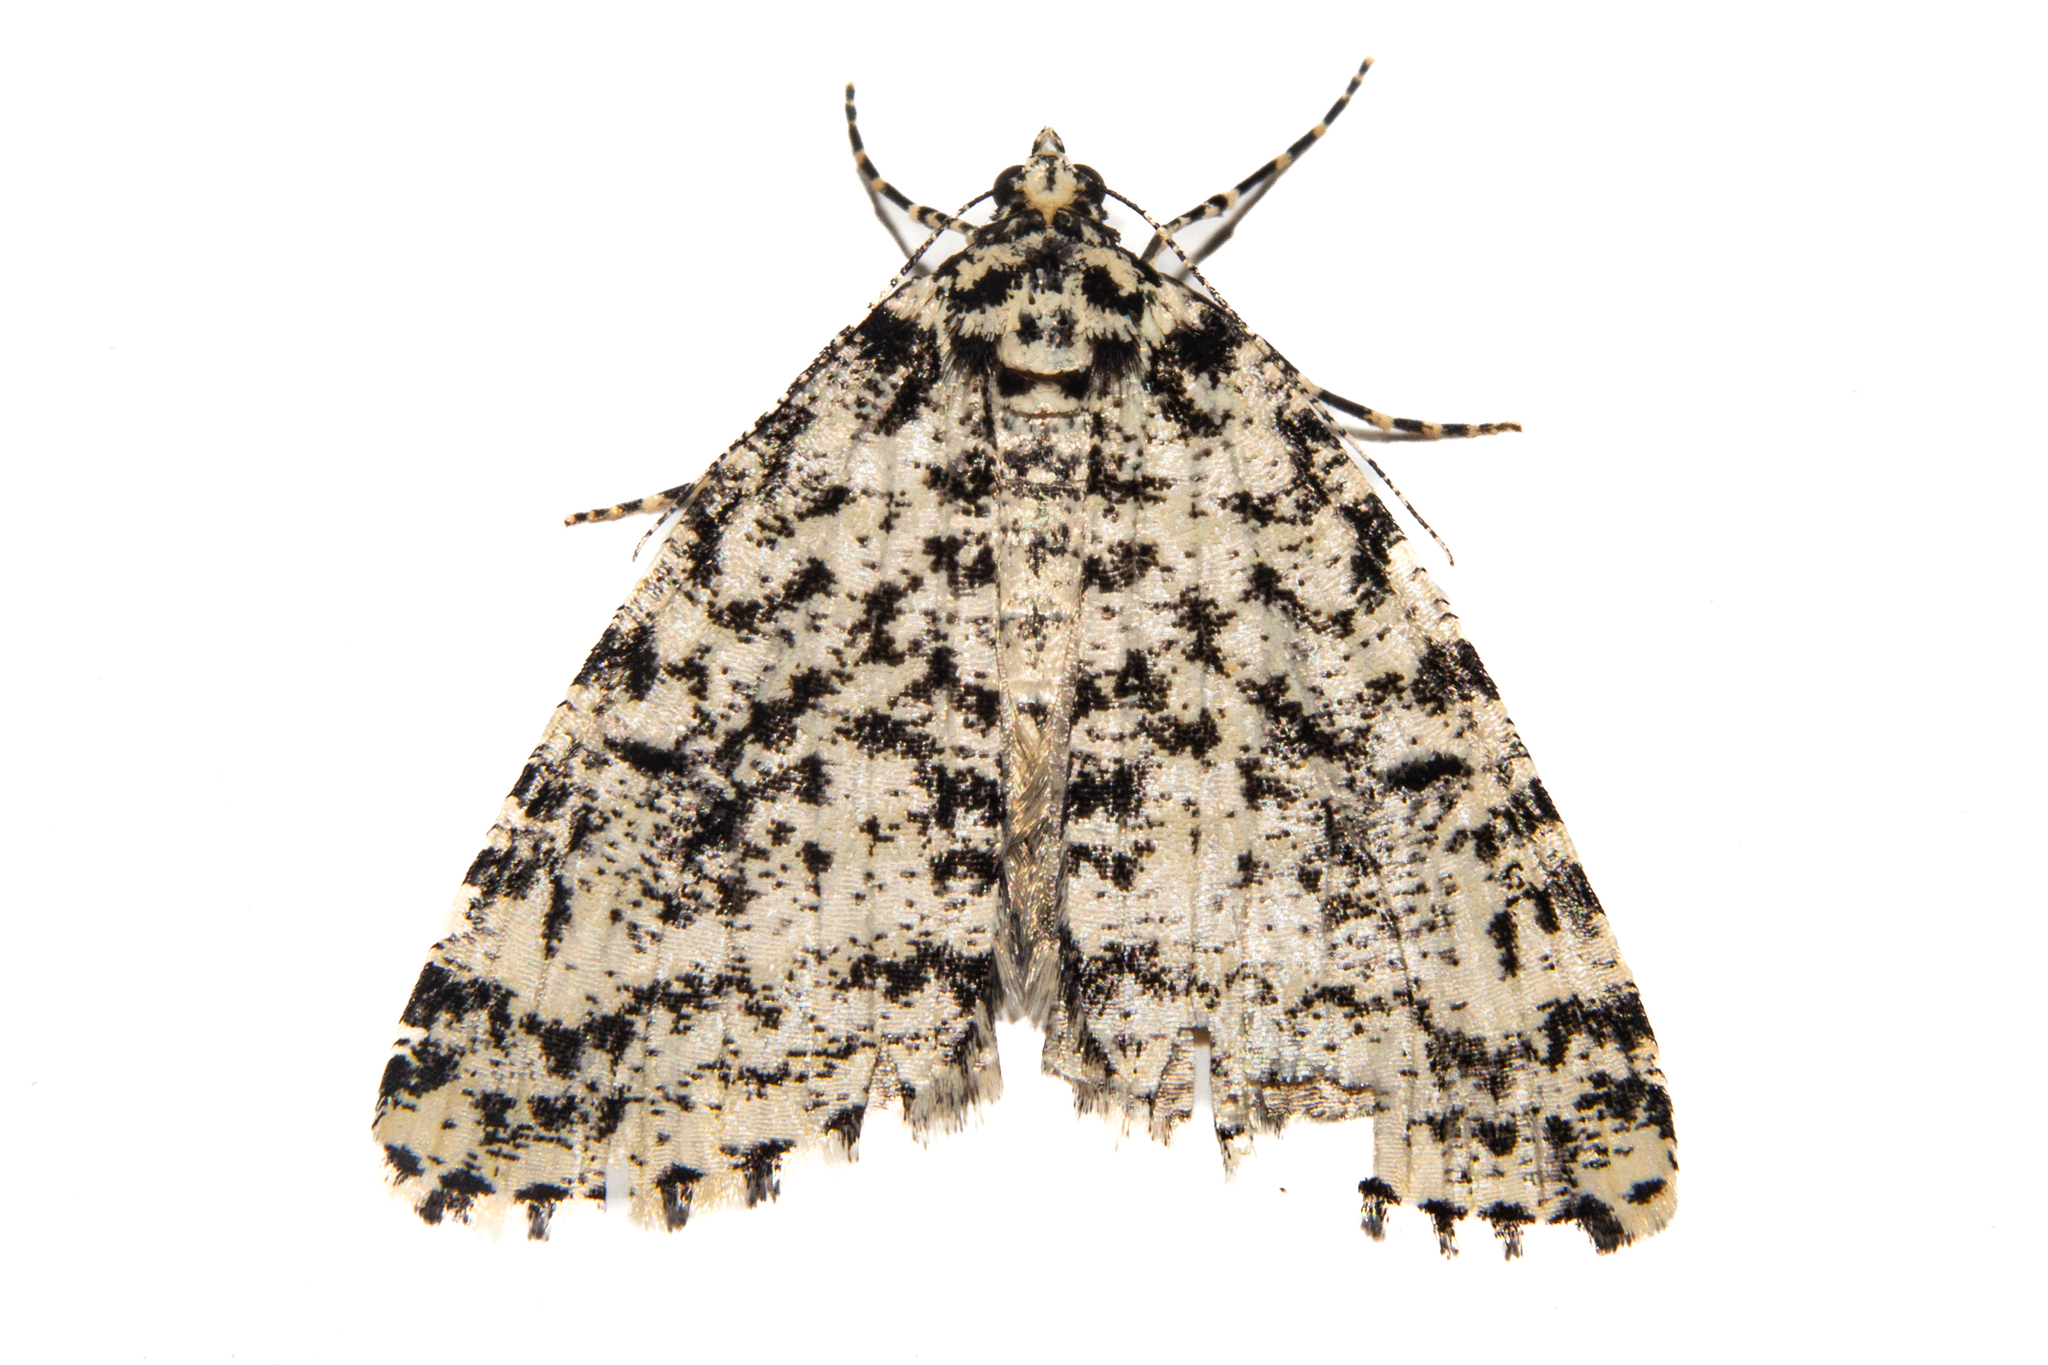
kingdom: Animalia
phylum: Arthropoda
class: Insecta
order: Lepidoptera
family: Geometridae
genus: Pseudocoremia
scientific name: Pseudocoremia monacha
